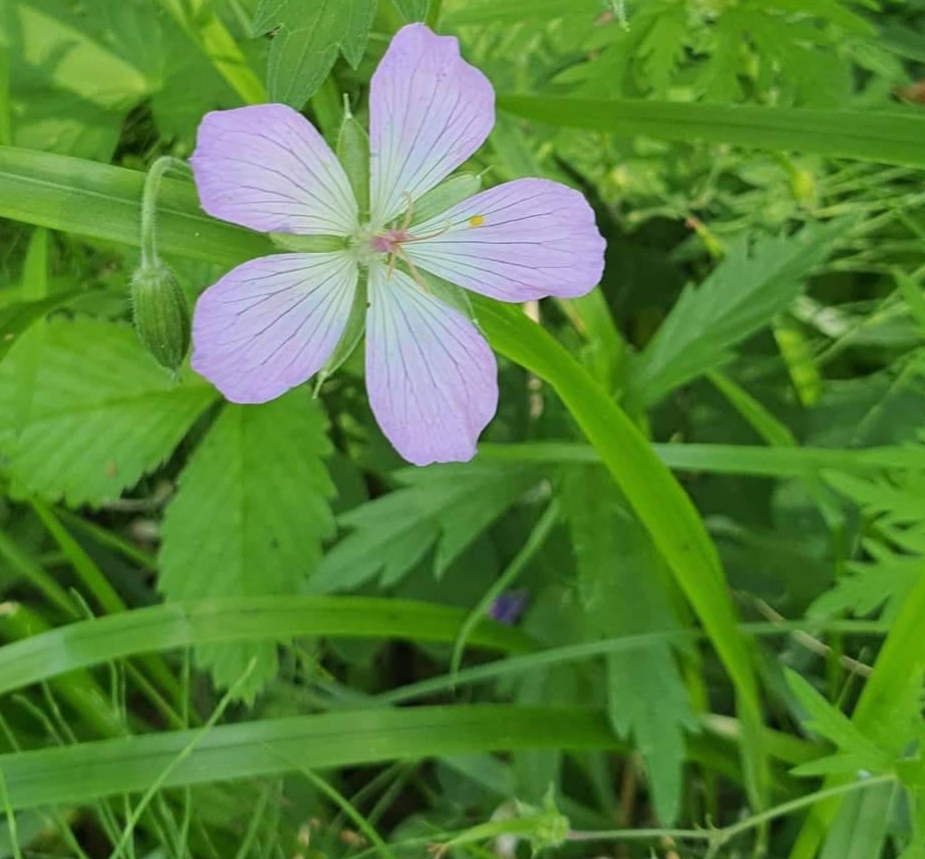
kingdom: Plantae
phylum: Tracheophyta
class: Magnoliopsida
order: Geraniales
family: Geraniaceae
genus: Geranium
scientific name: Geranium wlassovianum
